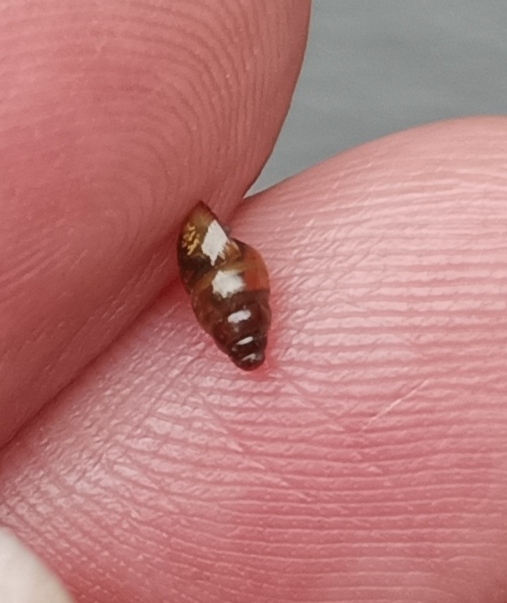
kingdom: Animalia
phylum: Mollusca
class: Gastropoda
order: Stylommatophora
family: Cochlicopidae
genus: Cochlicopa
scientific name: Cochlicopa lubrica
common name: Glossy pillar snail
